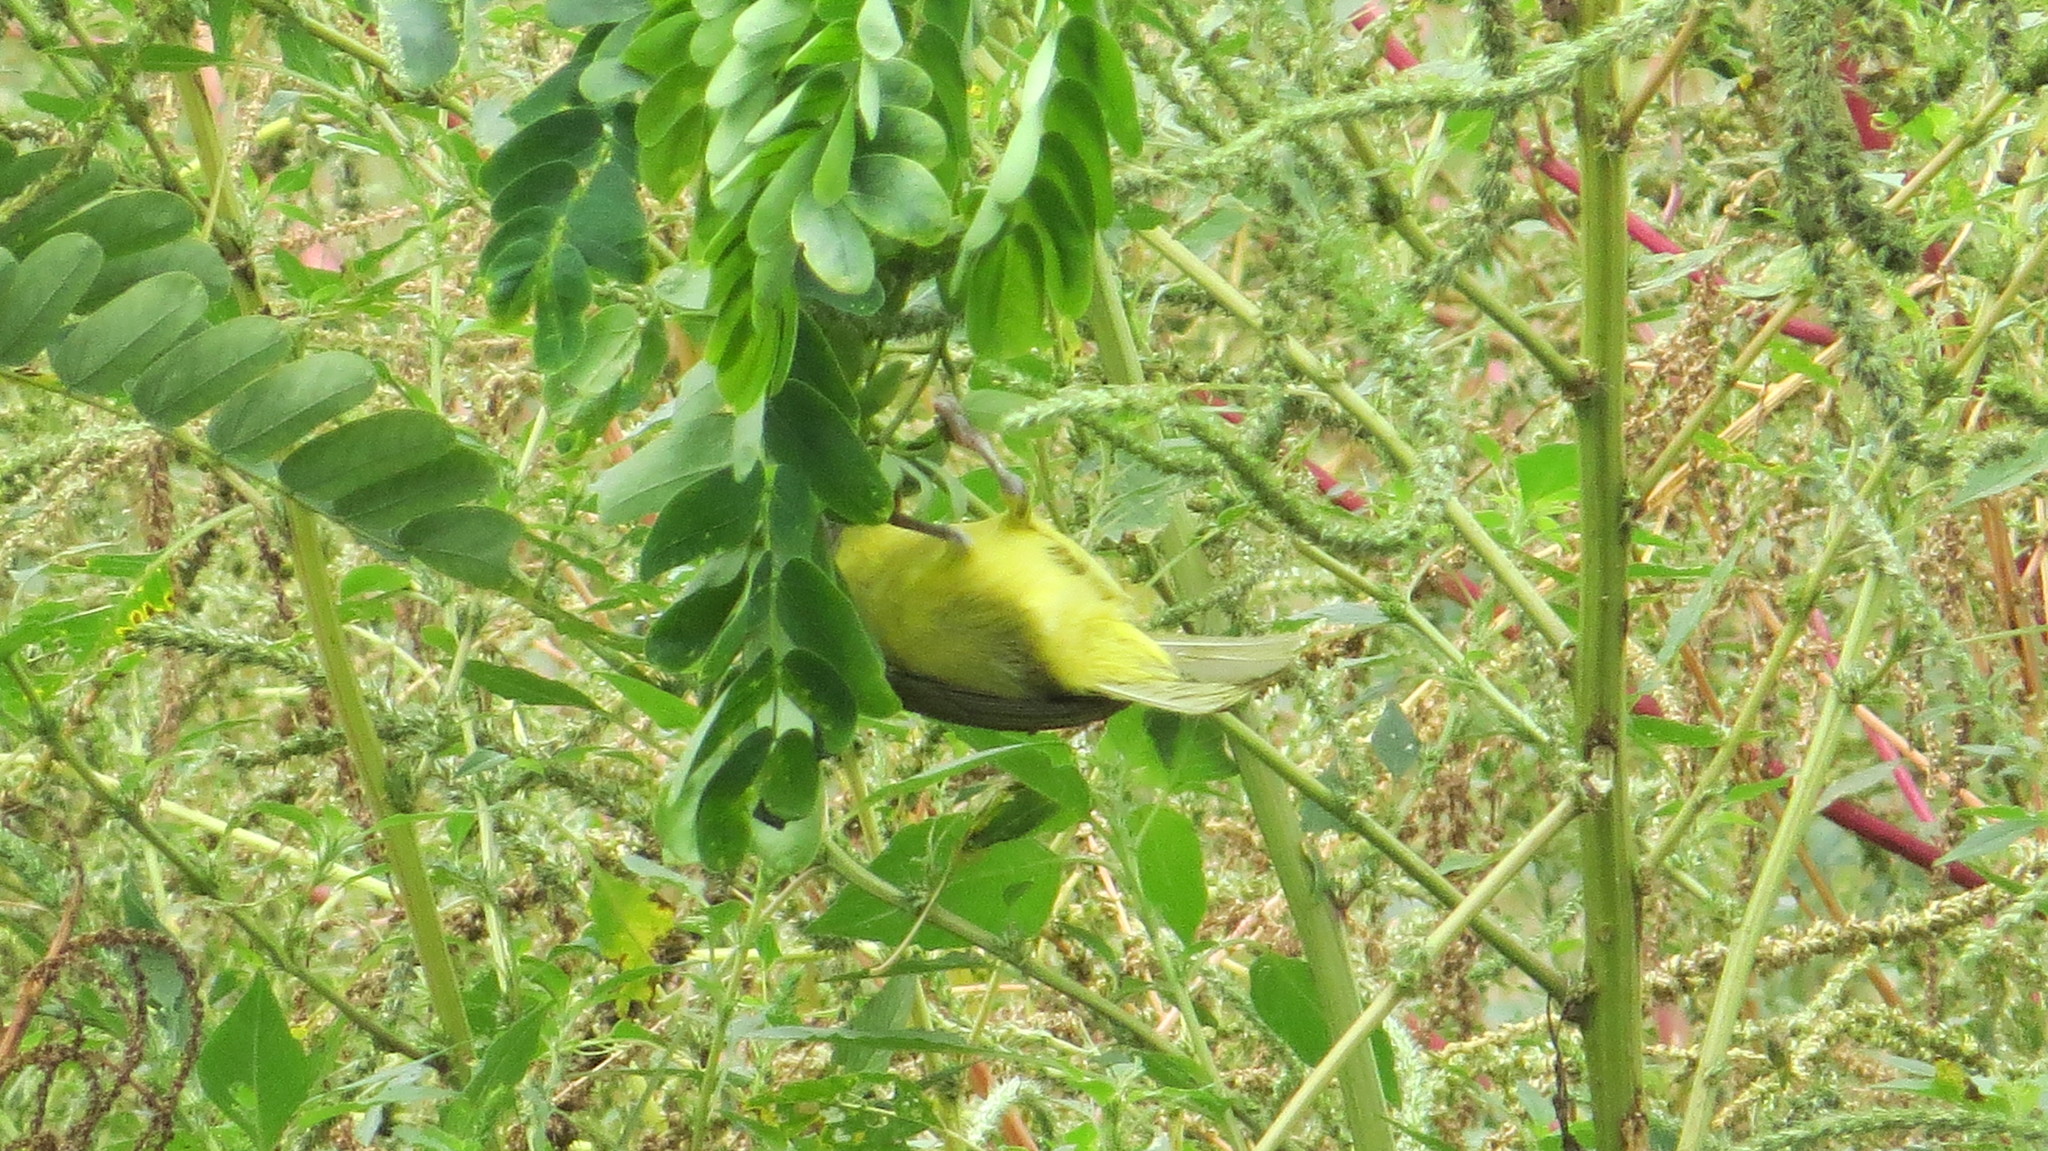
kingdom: Animalia
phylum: Chordata
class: Aves
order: Passeriformes
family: Vireonidae
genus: Cyclarhis
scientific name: Cyclarhis gujanensis
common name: Rufous-browed peppershrike
